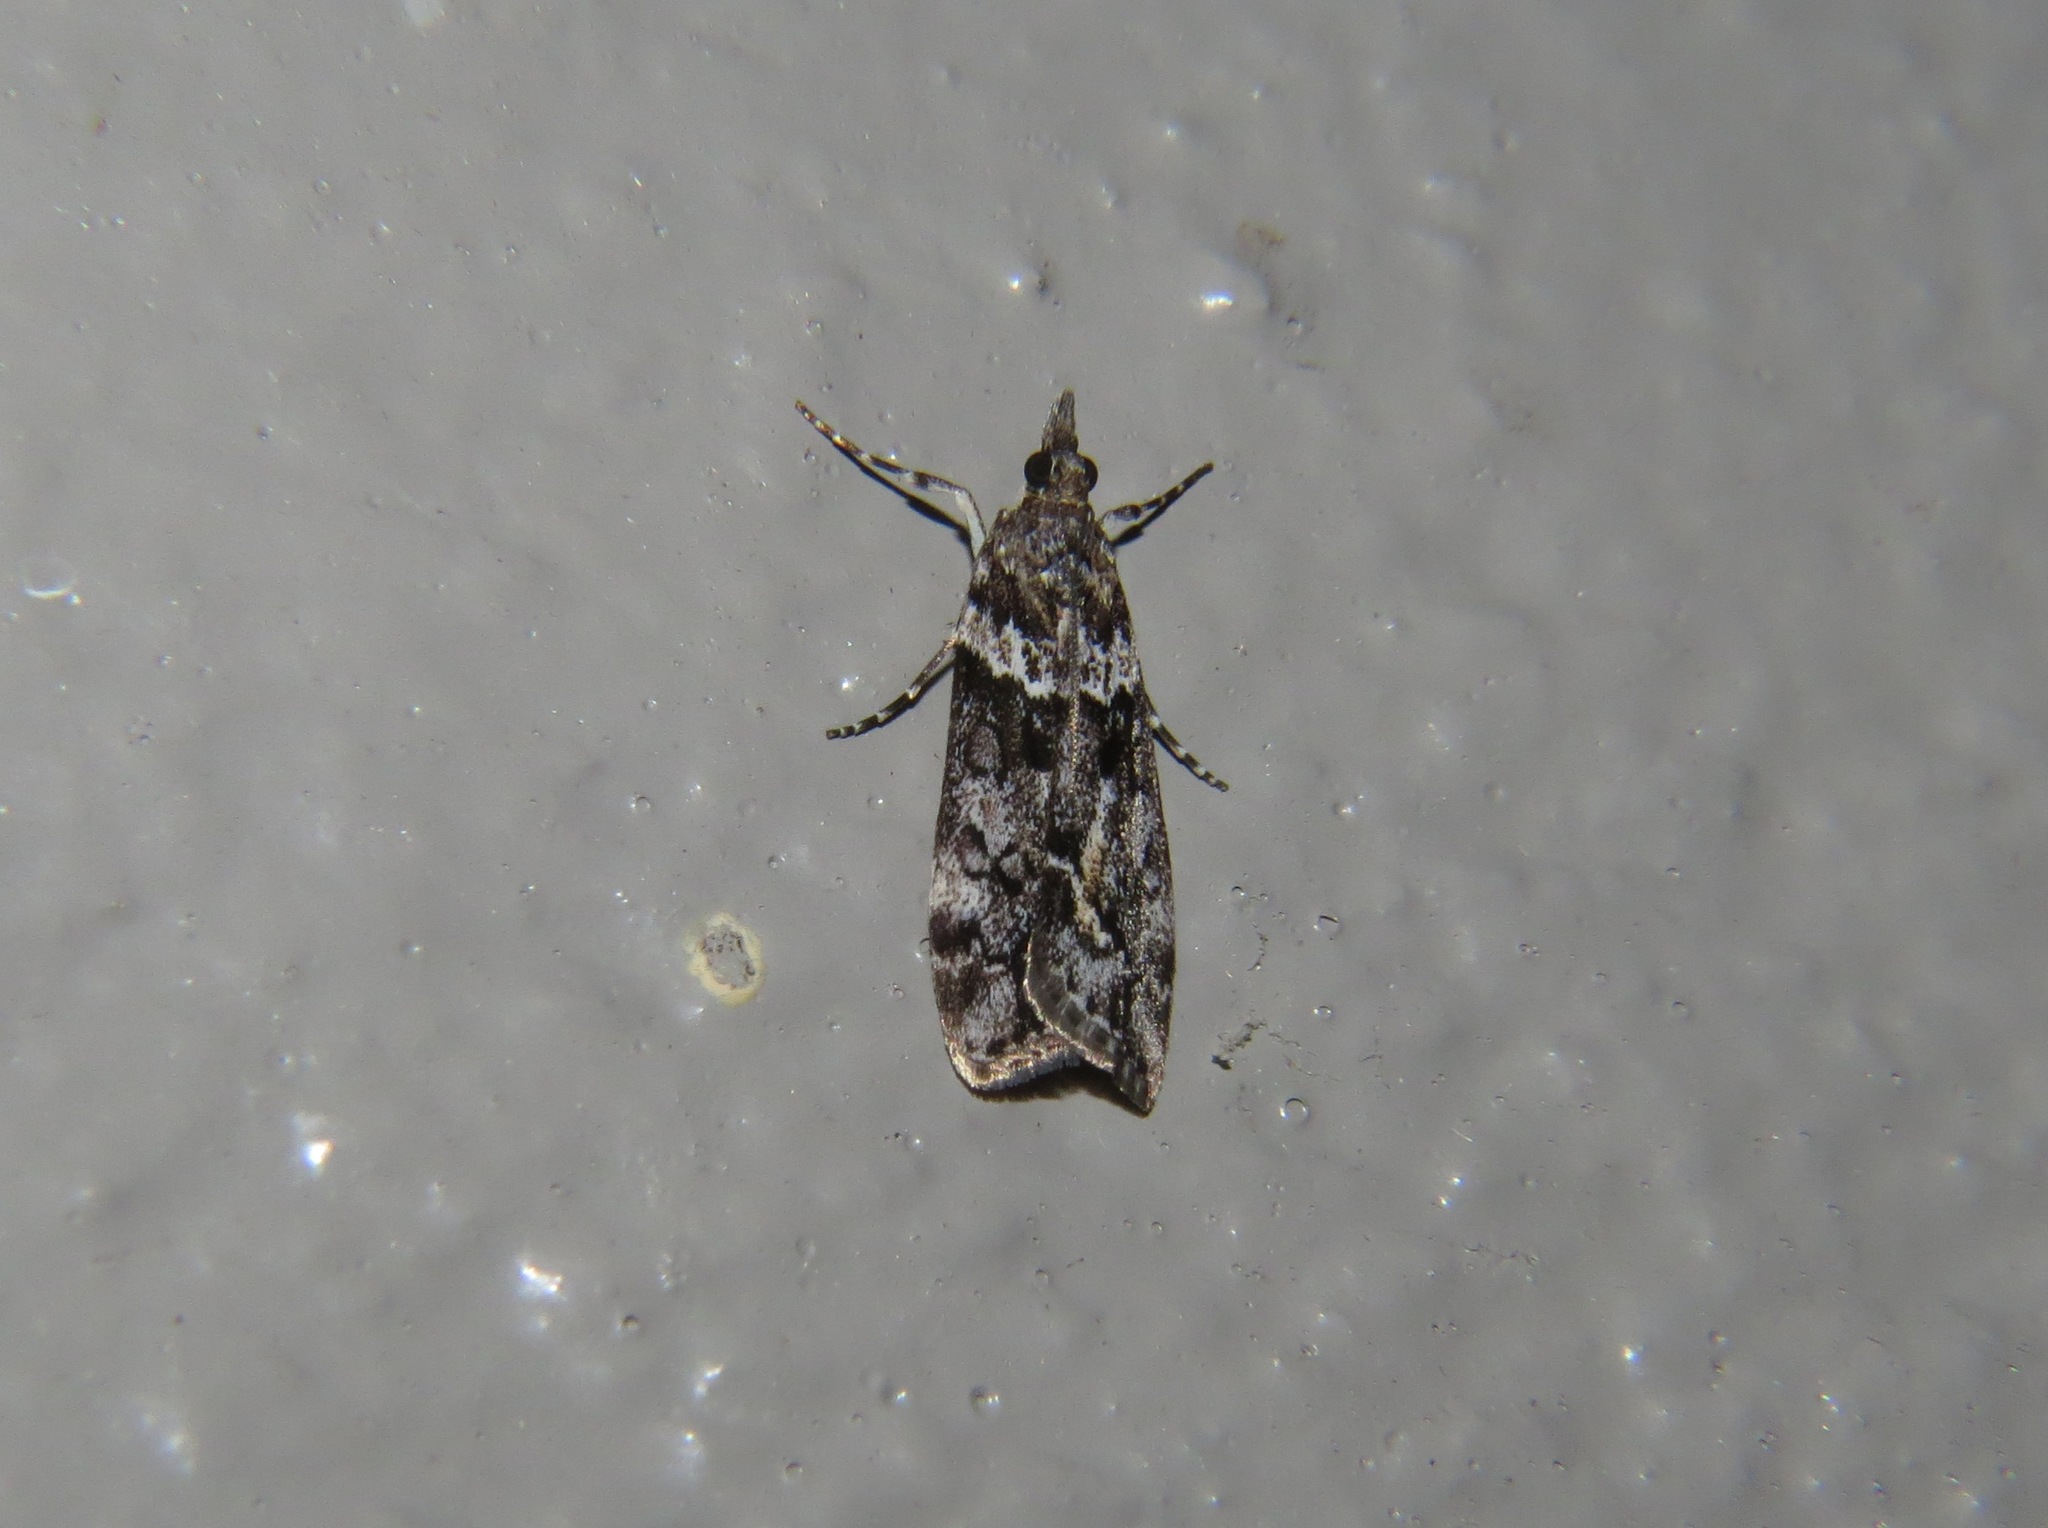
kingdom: Animalia
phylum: Arthropoda
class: Insecta
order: Lepidoptera
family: Crambidae
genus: Eudonia
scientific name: Eudonia submarginalis
